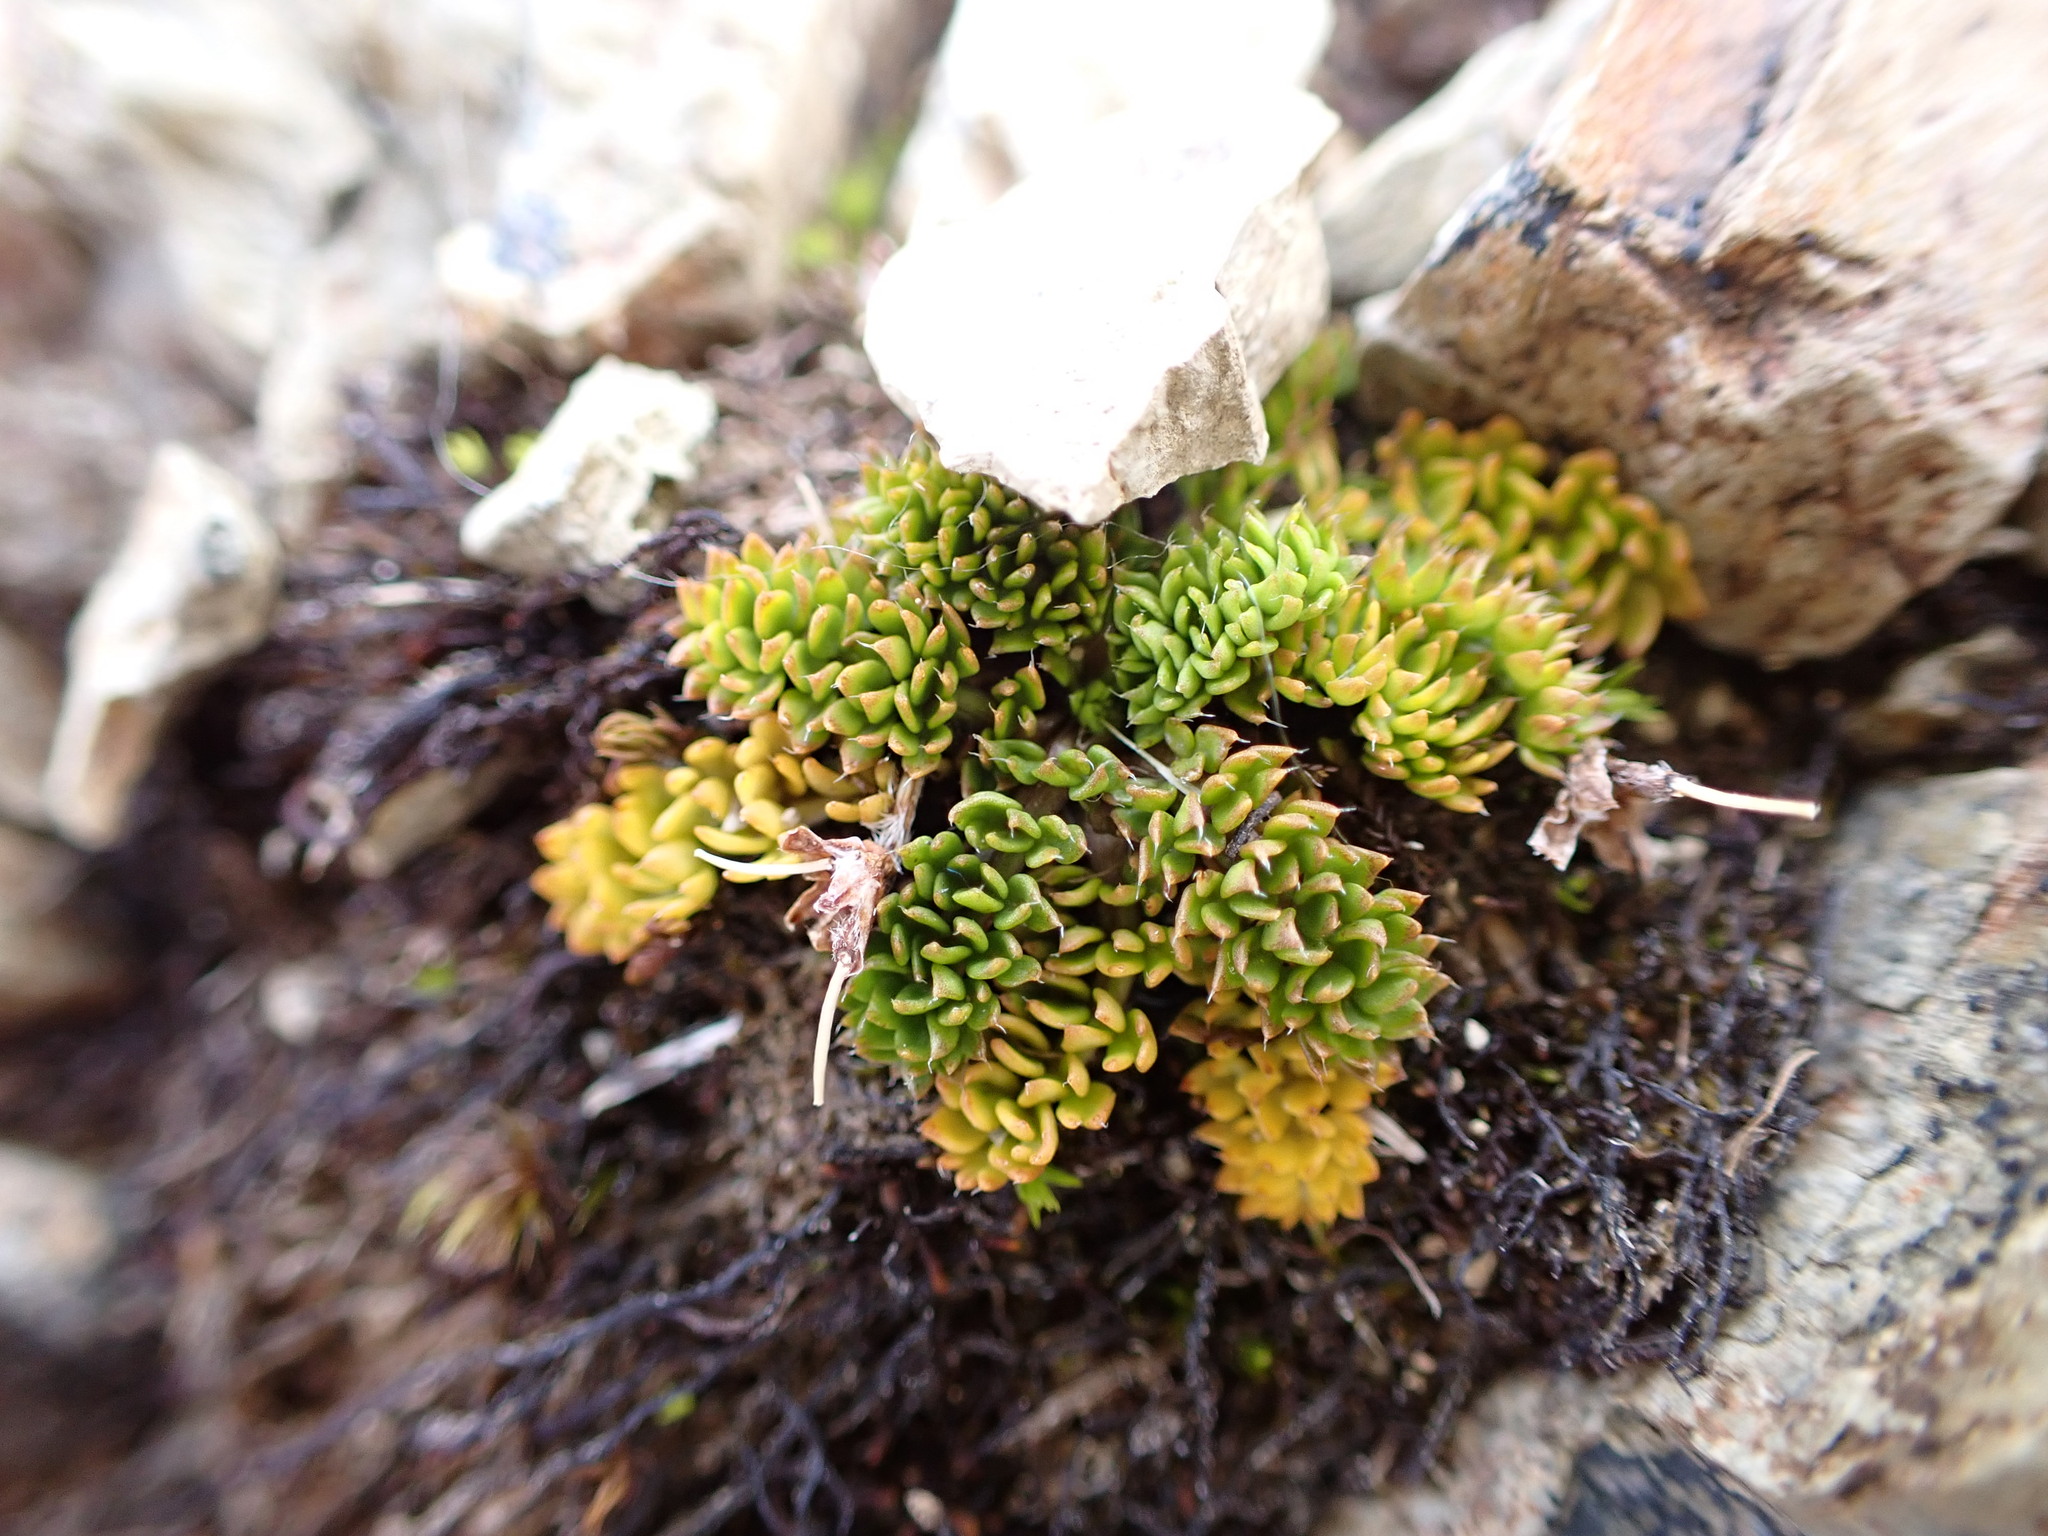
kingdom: Plantae
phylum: Tracheophyta
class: Magnoliopsida
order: Apiales
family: Apiaceae
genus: Chaerophyllum
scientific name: Chaerophyllum colensoi
